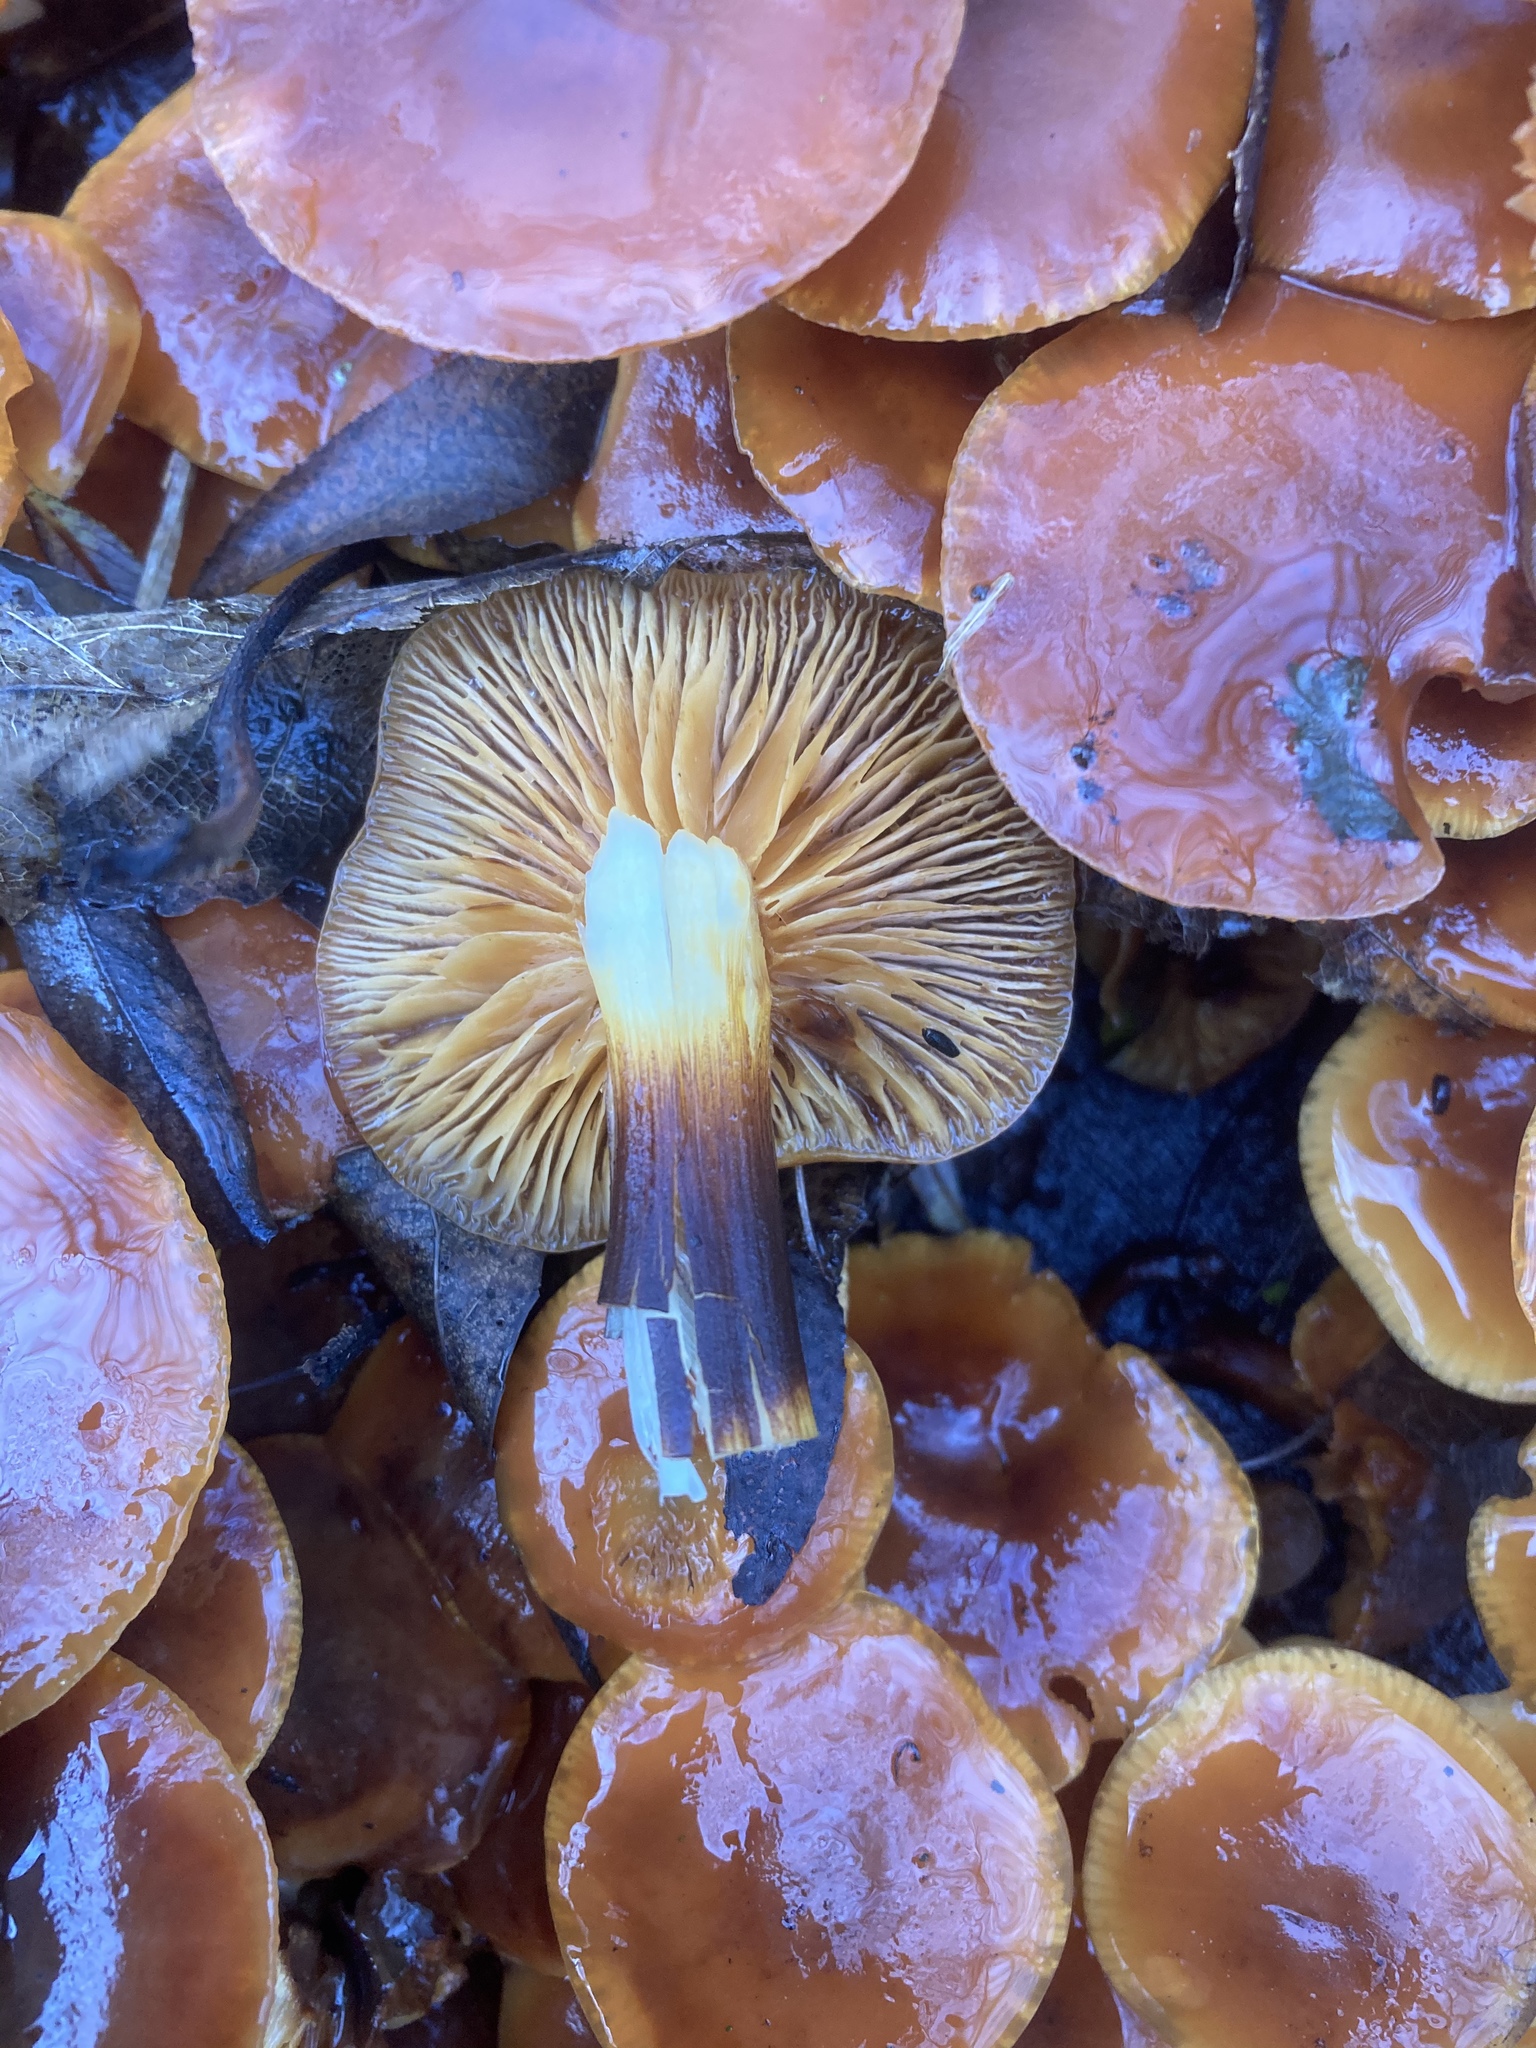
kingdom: Fungi
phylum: Basidiomycota
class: Agaricomycetes
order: Agaricales
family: Physalacriaceae
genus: Flammulina
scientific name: Flammulina
